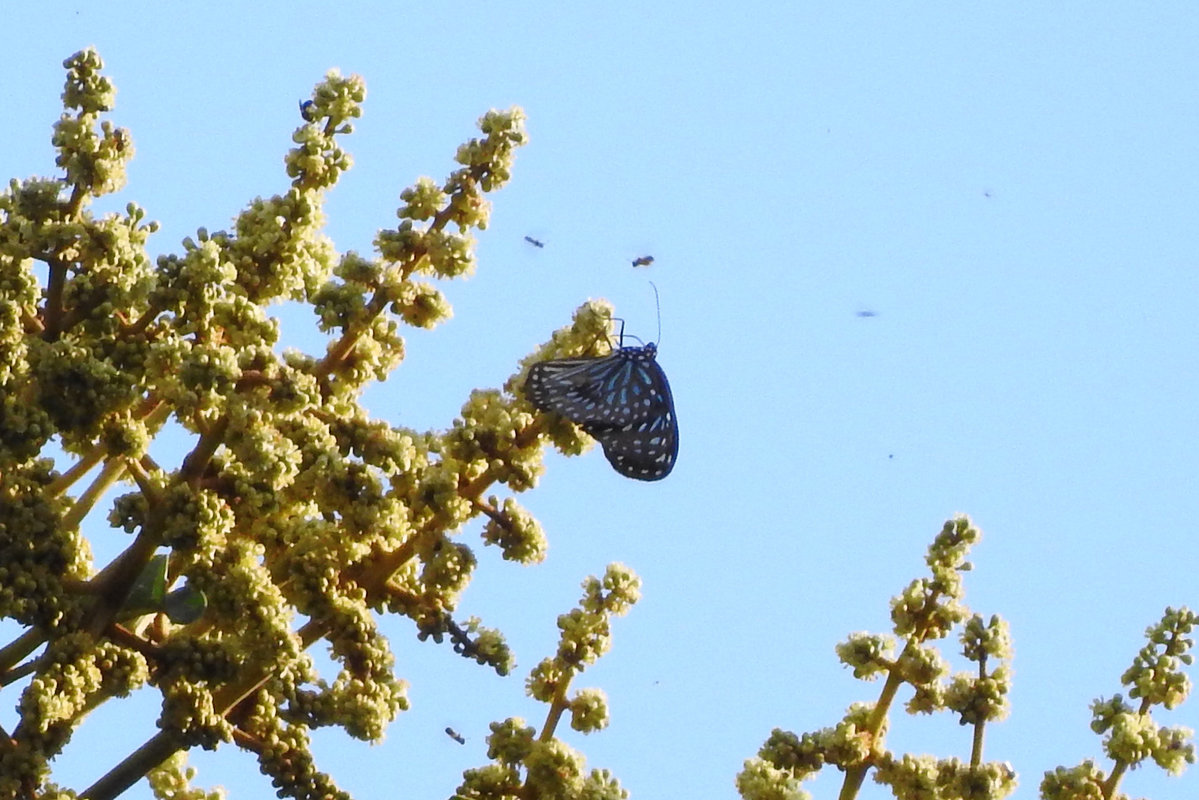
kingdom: Animalia
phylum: Arthropoda
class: Insecta
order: Lepidoptera
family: Nymphalidae
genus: Tirumala
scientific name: Tirumala septentrionis
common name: Dark blue tiger butterfly
